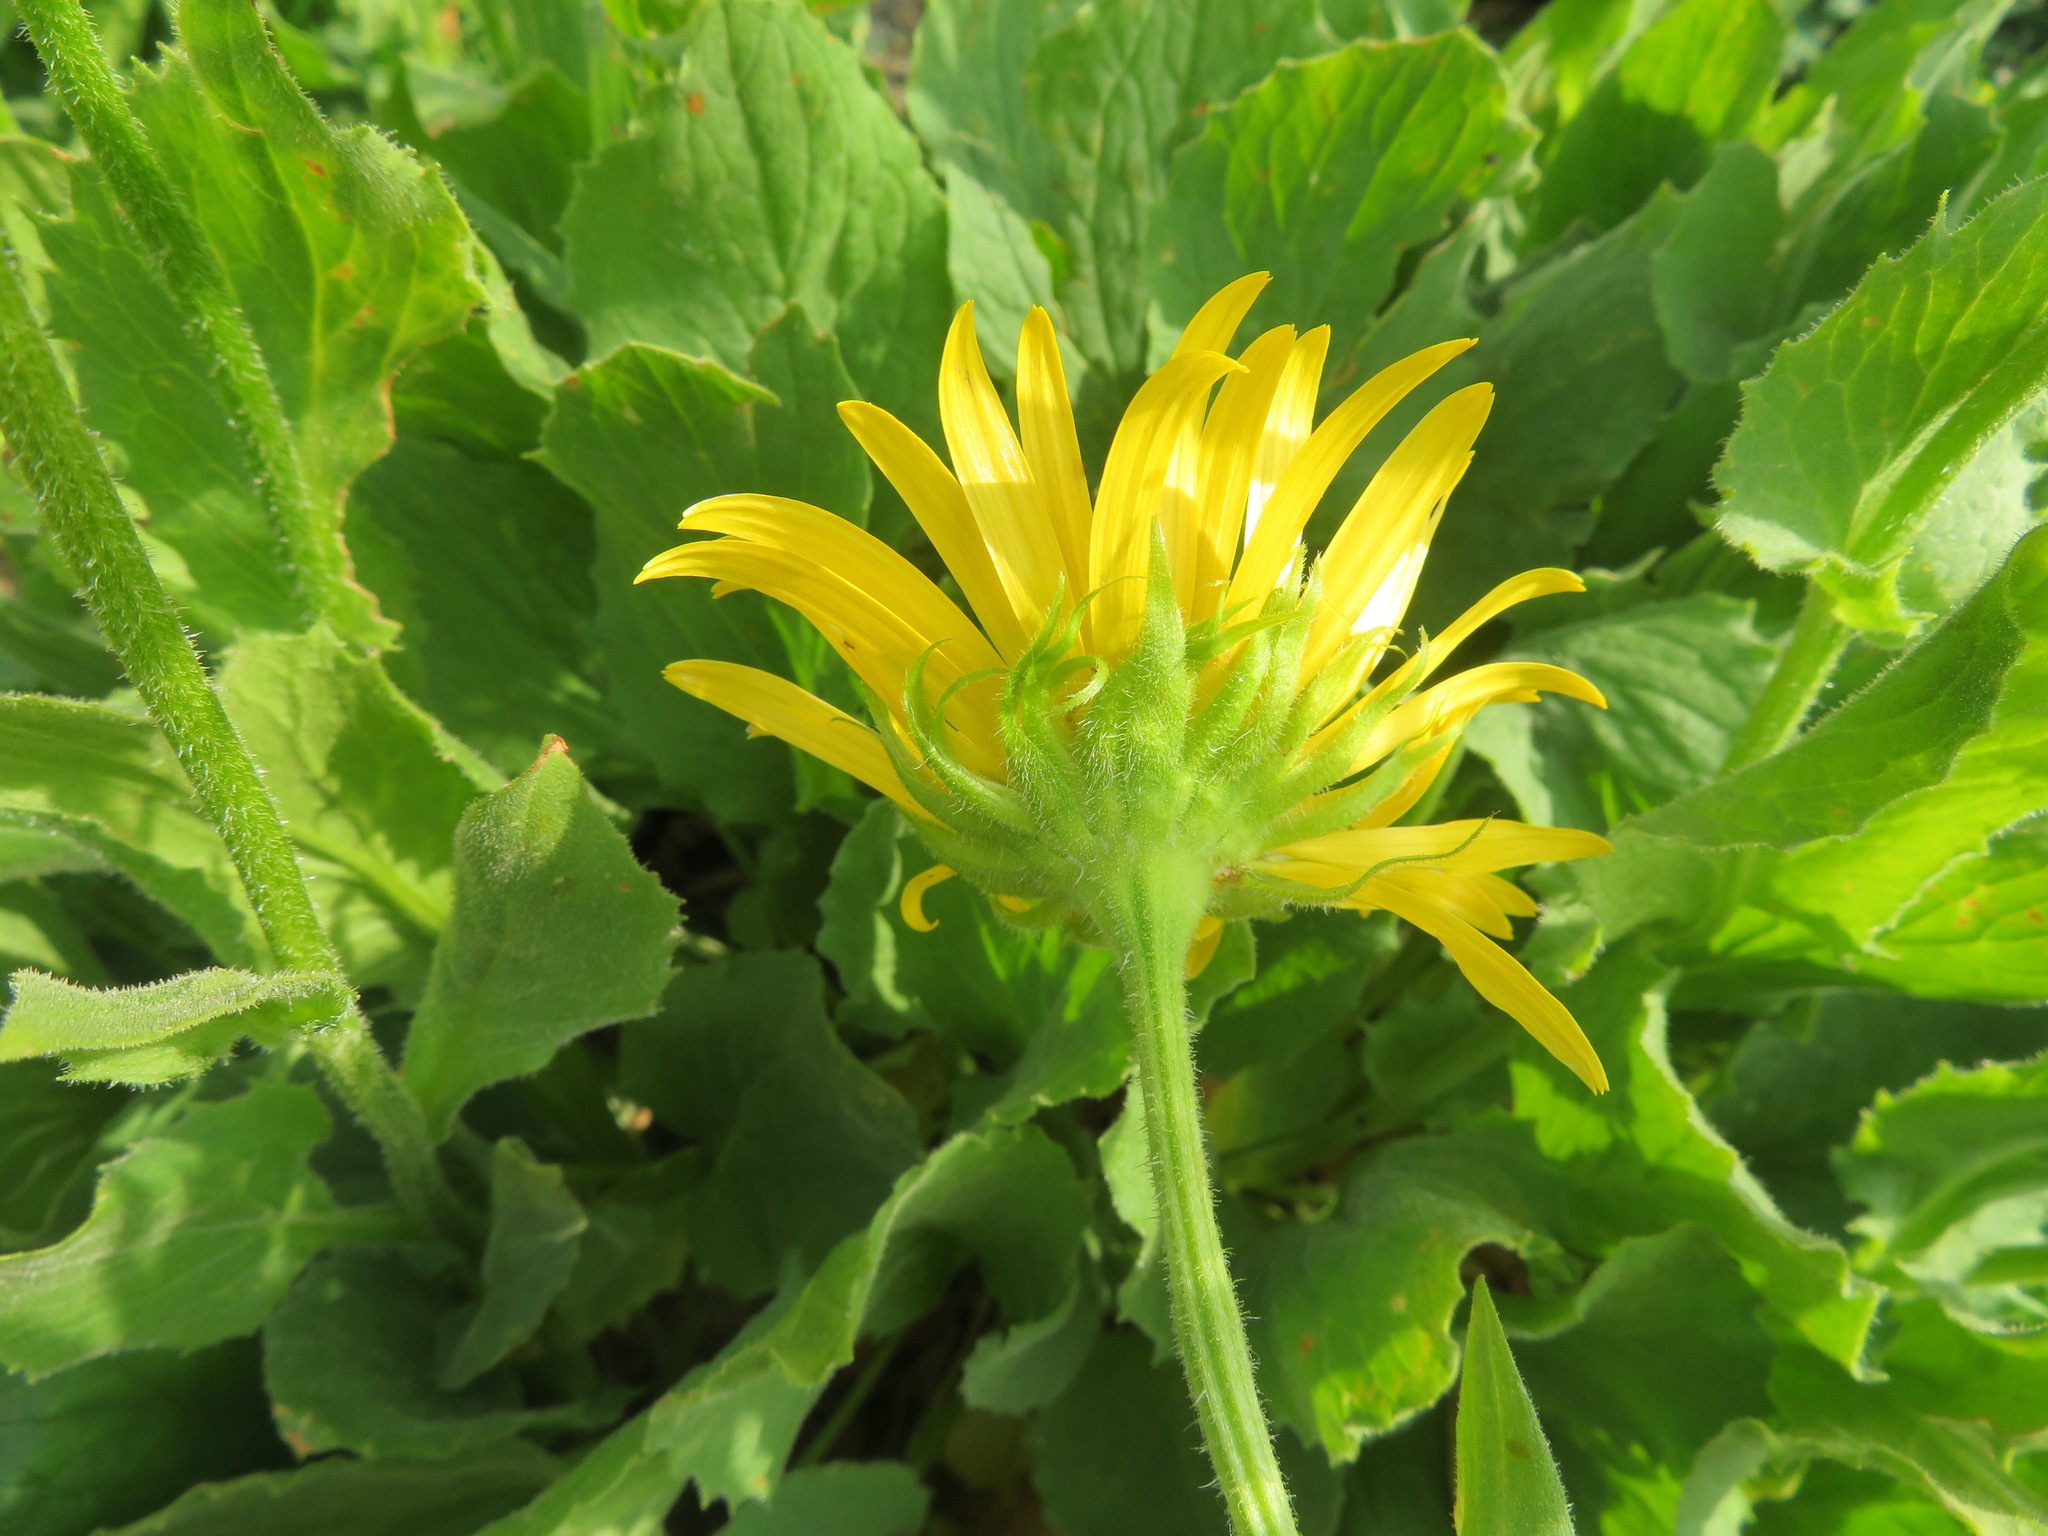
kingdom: Plantae
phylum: Tracheophyta
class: Magnoliopsida
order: Asterales
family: Asteraceae
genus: Doronicum
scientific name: Doronicum grandiflorum
